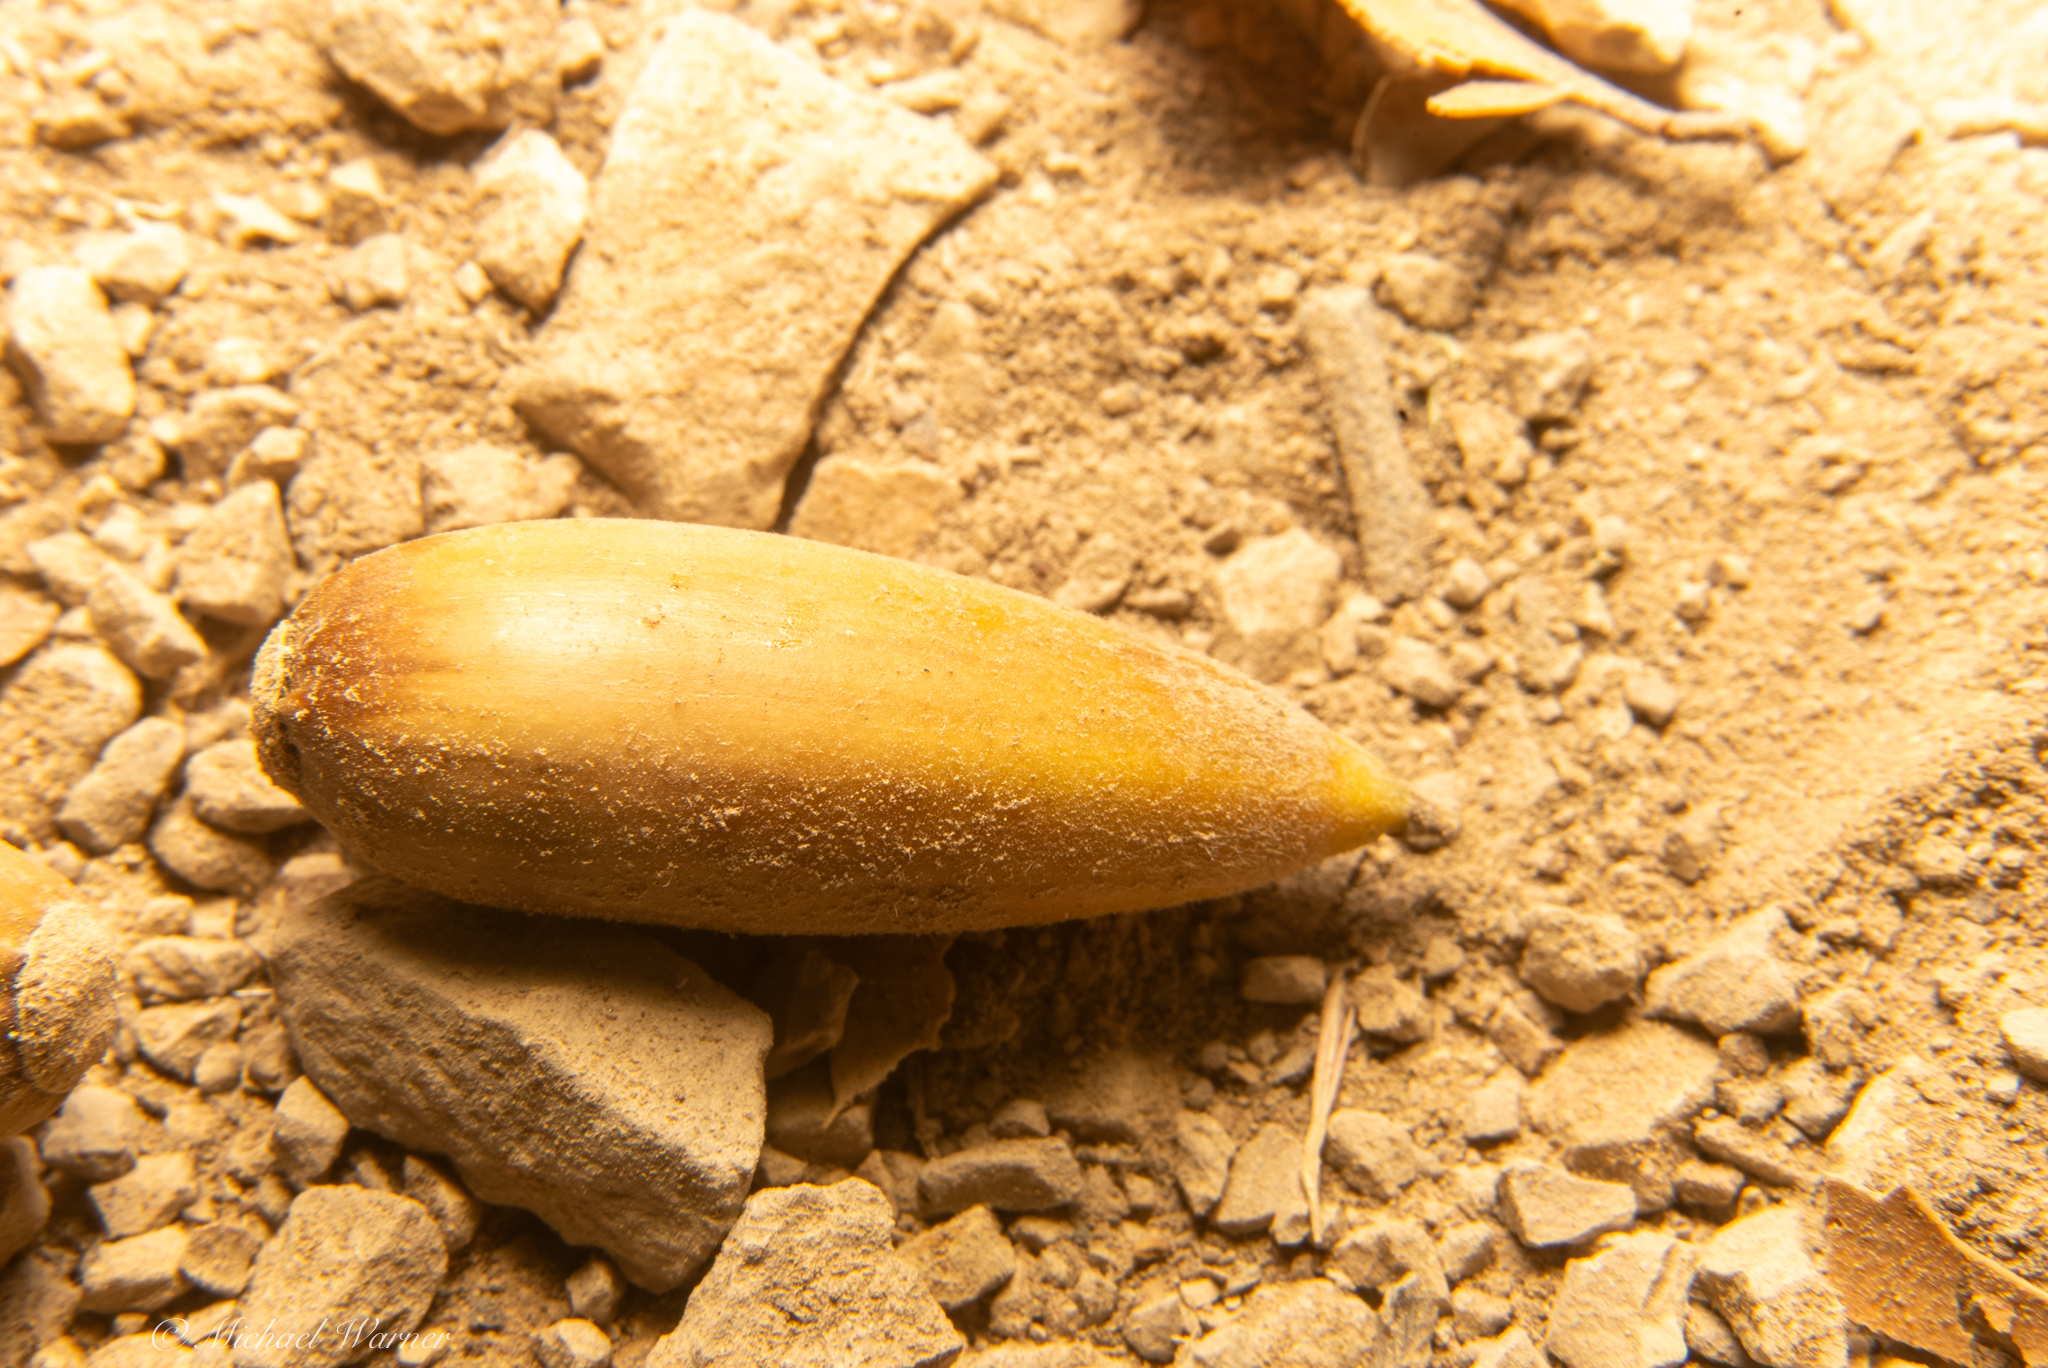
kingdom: Plantae
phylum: Tracheophyta
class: Magnoliopsida
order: Fagales
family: Fagaceae
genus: Quercus
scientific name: Quercus agrifolia
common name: California live oak
